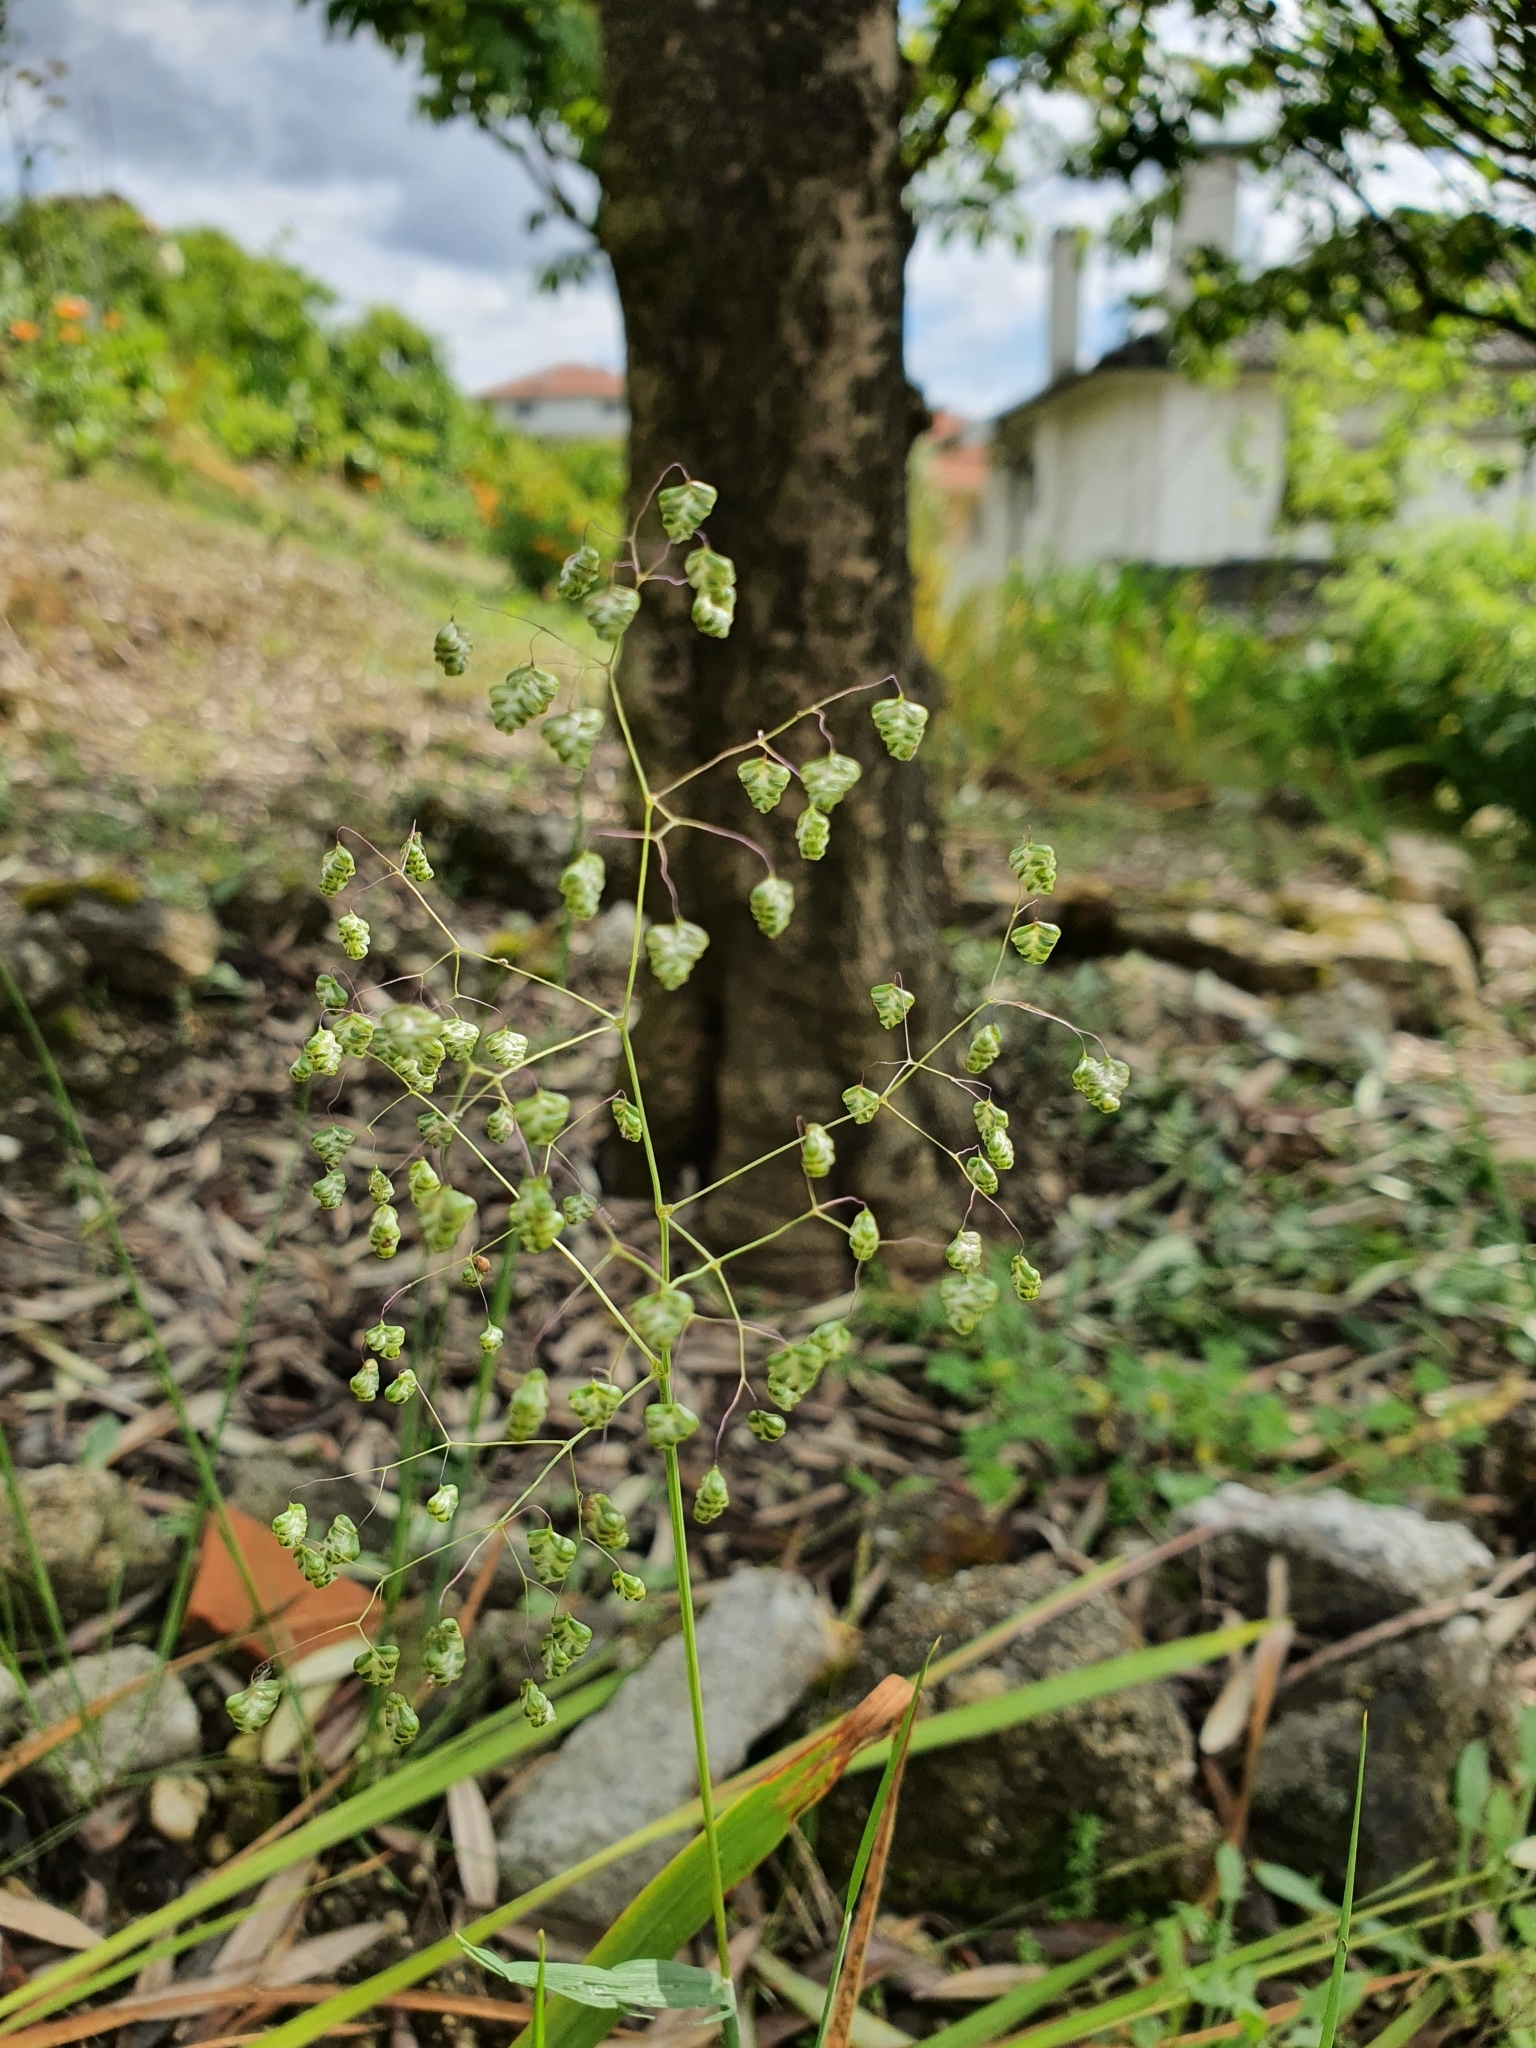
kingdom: Plantae
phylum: Tracheophyta
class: Liliopsida
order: Poales
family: Poaceae
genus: Briza
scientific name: Briza minor
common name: Lesser quaking-grass
